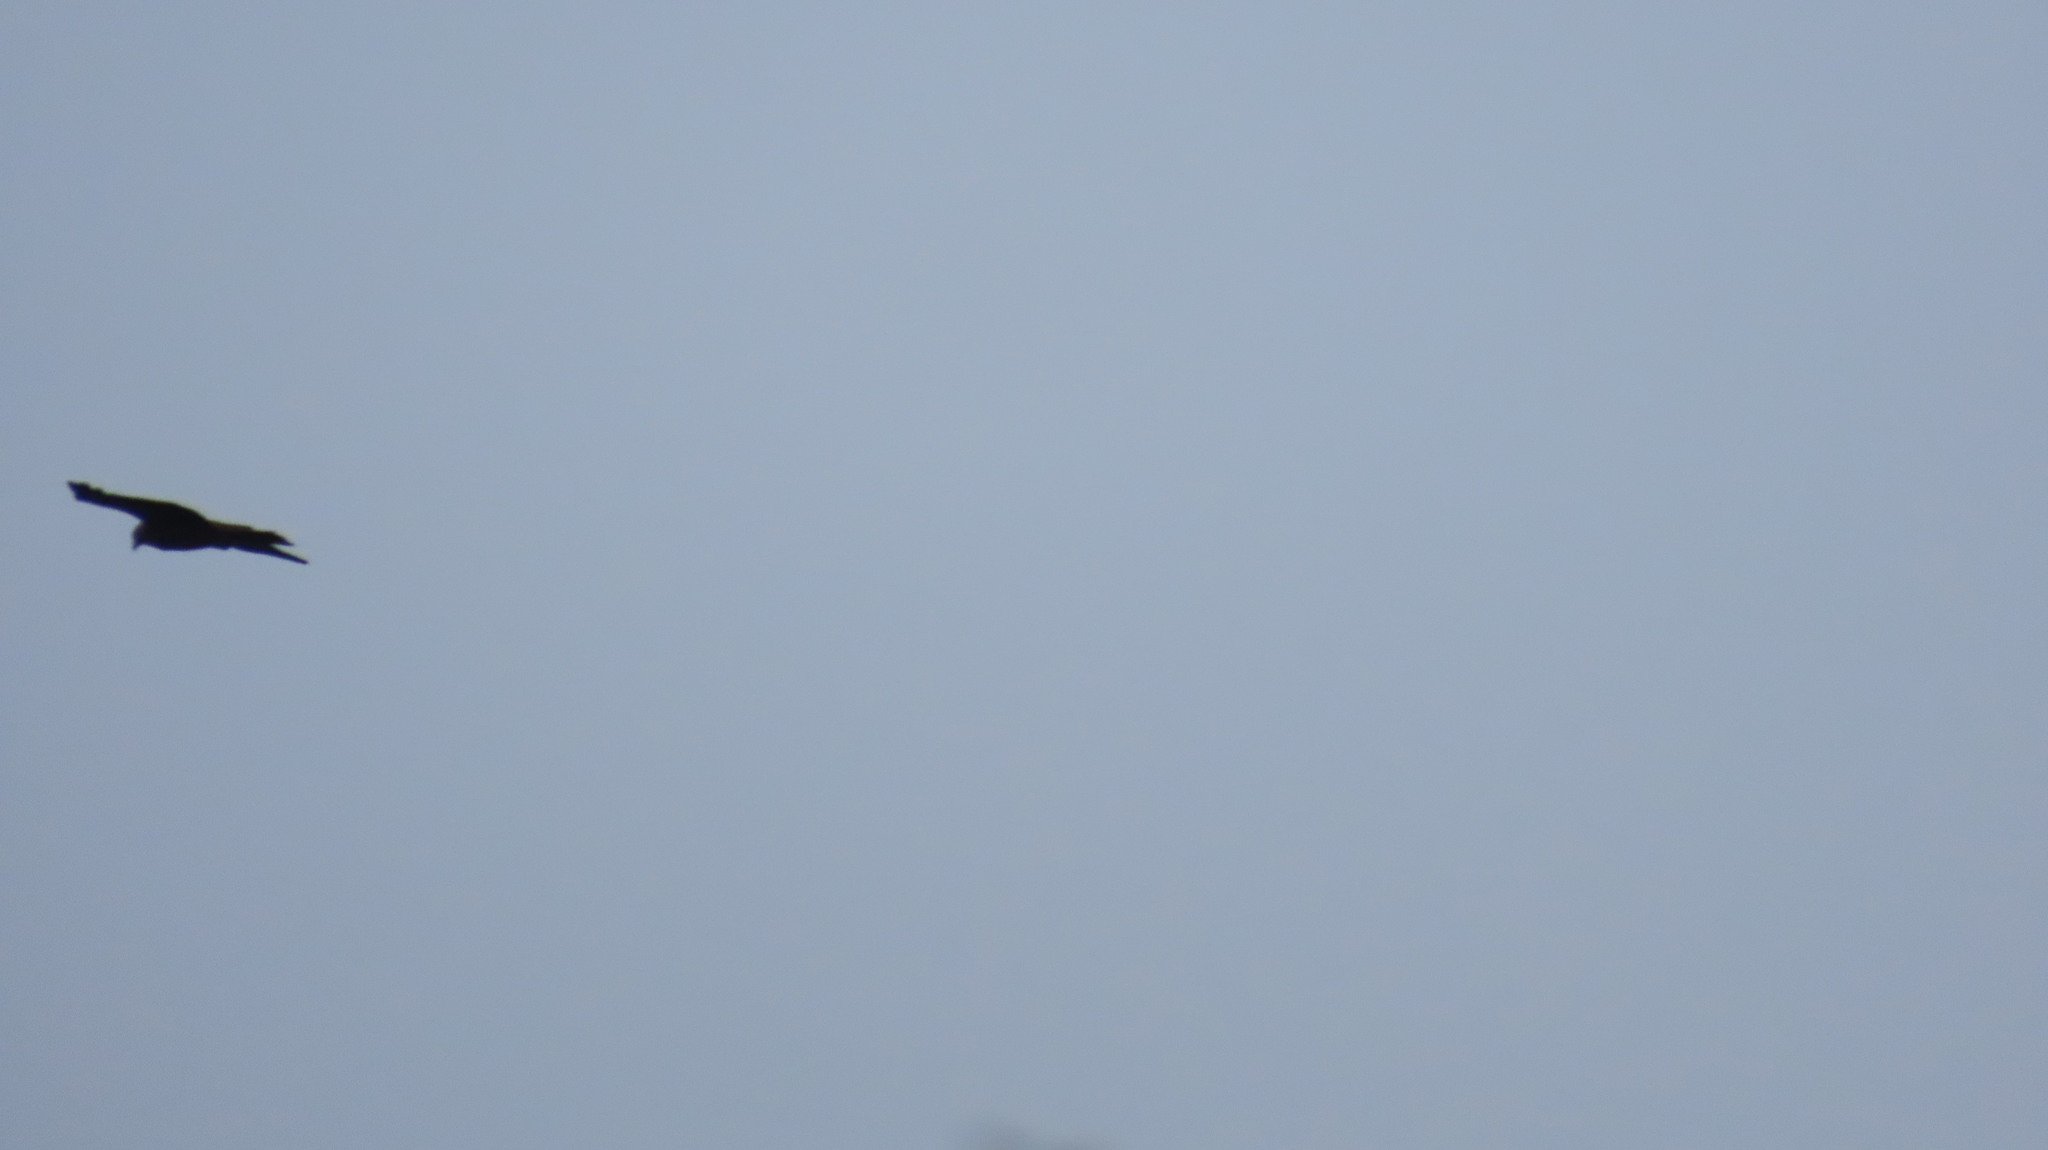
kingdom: Animalia
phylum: Chordata
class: Aves
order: Accipitriformes
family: Accipitridae
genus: Haliastur
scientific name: Haliastur indus
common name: Brahminy kite
